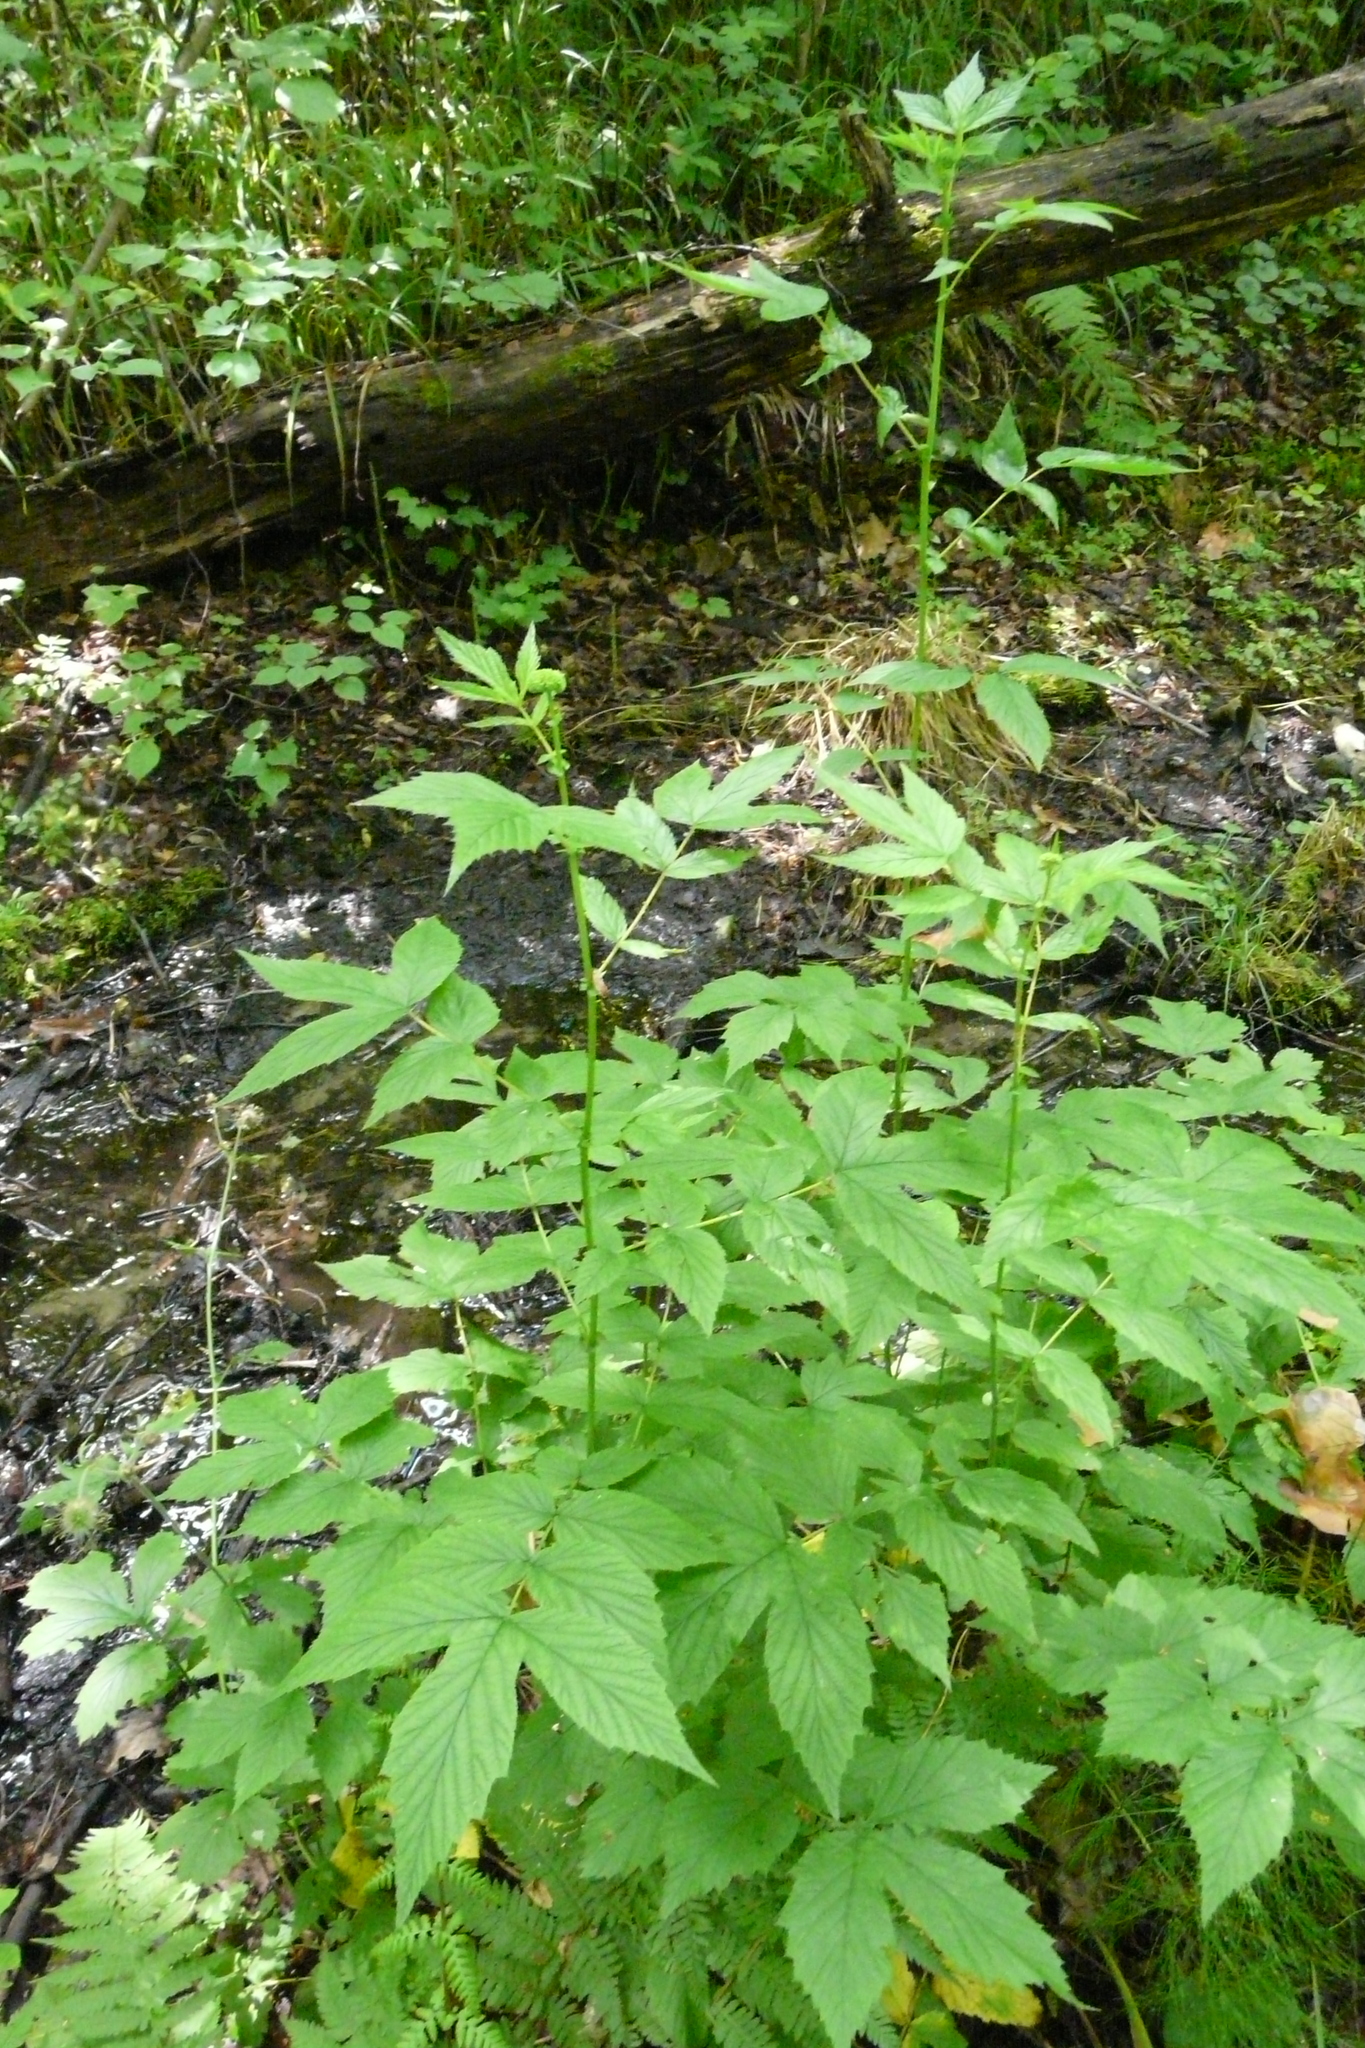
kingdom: Plantae
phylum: Tracheophyta
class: Magnoliopsida
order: Rosales
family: Rosaceae
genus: Filipendula
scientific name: Filipendula ulmaria
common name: Meadowsweet
